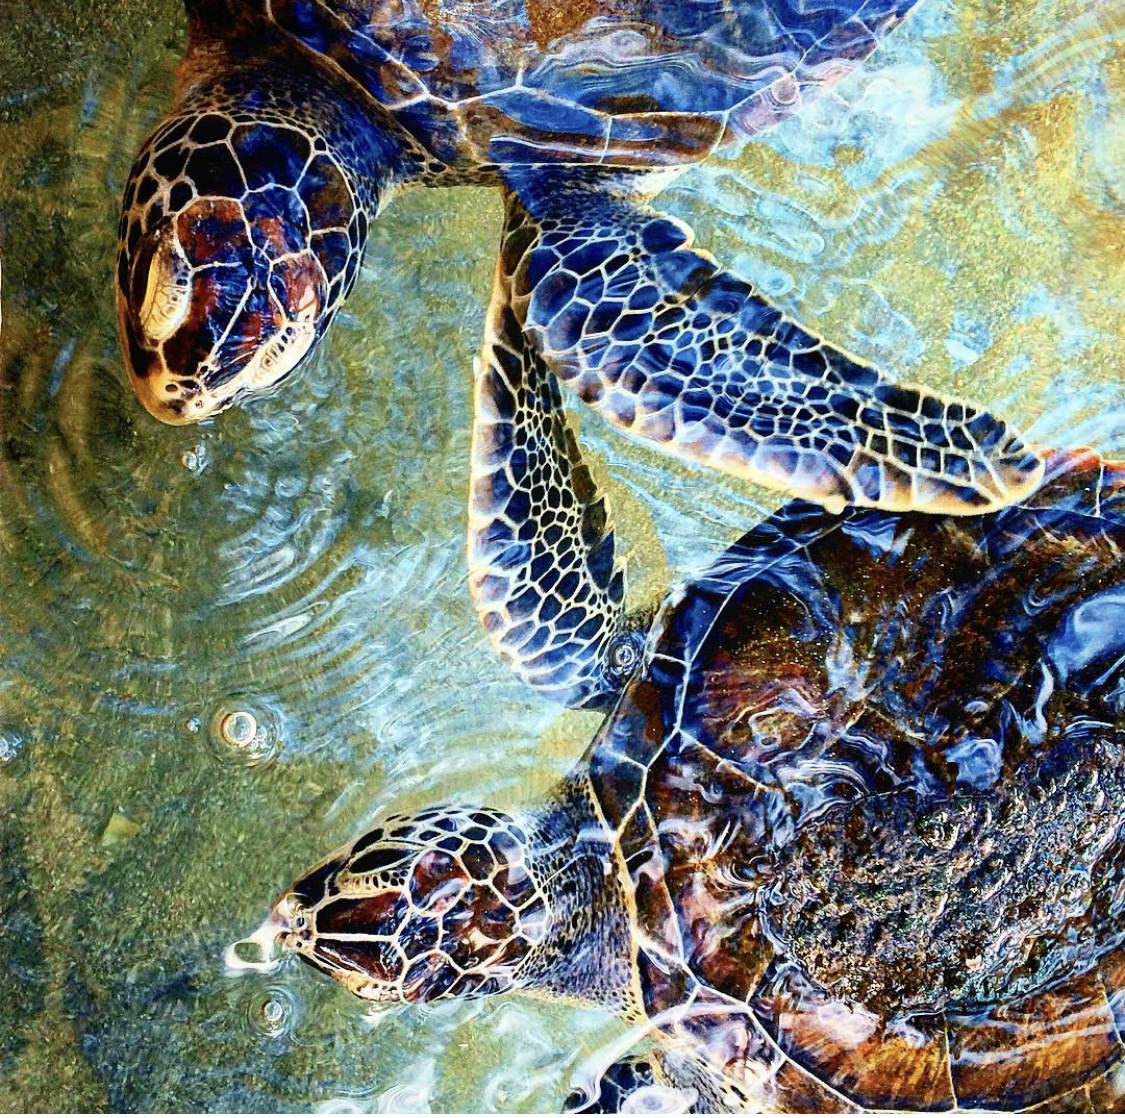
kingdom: Animalia
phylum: Chordata
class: Testudines
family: Cheloniidae
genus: Chelonia
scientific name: Chelonia mydas
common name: Green turtle
